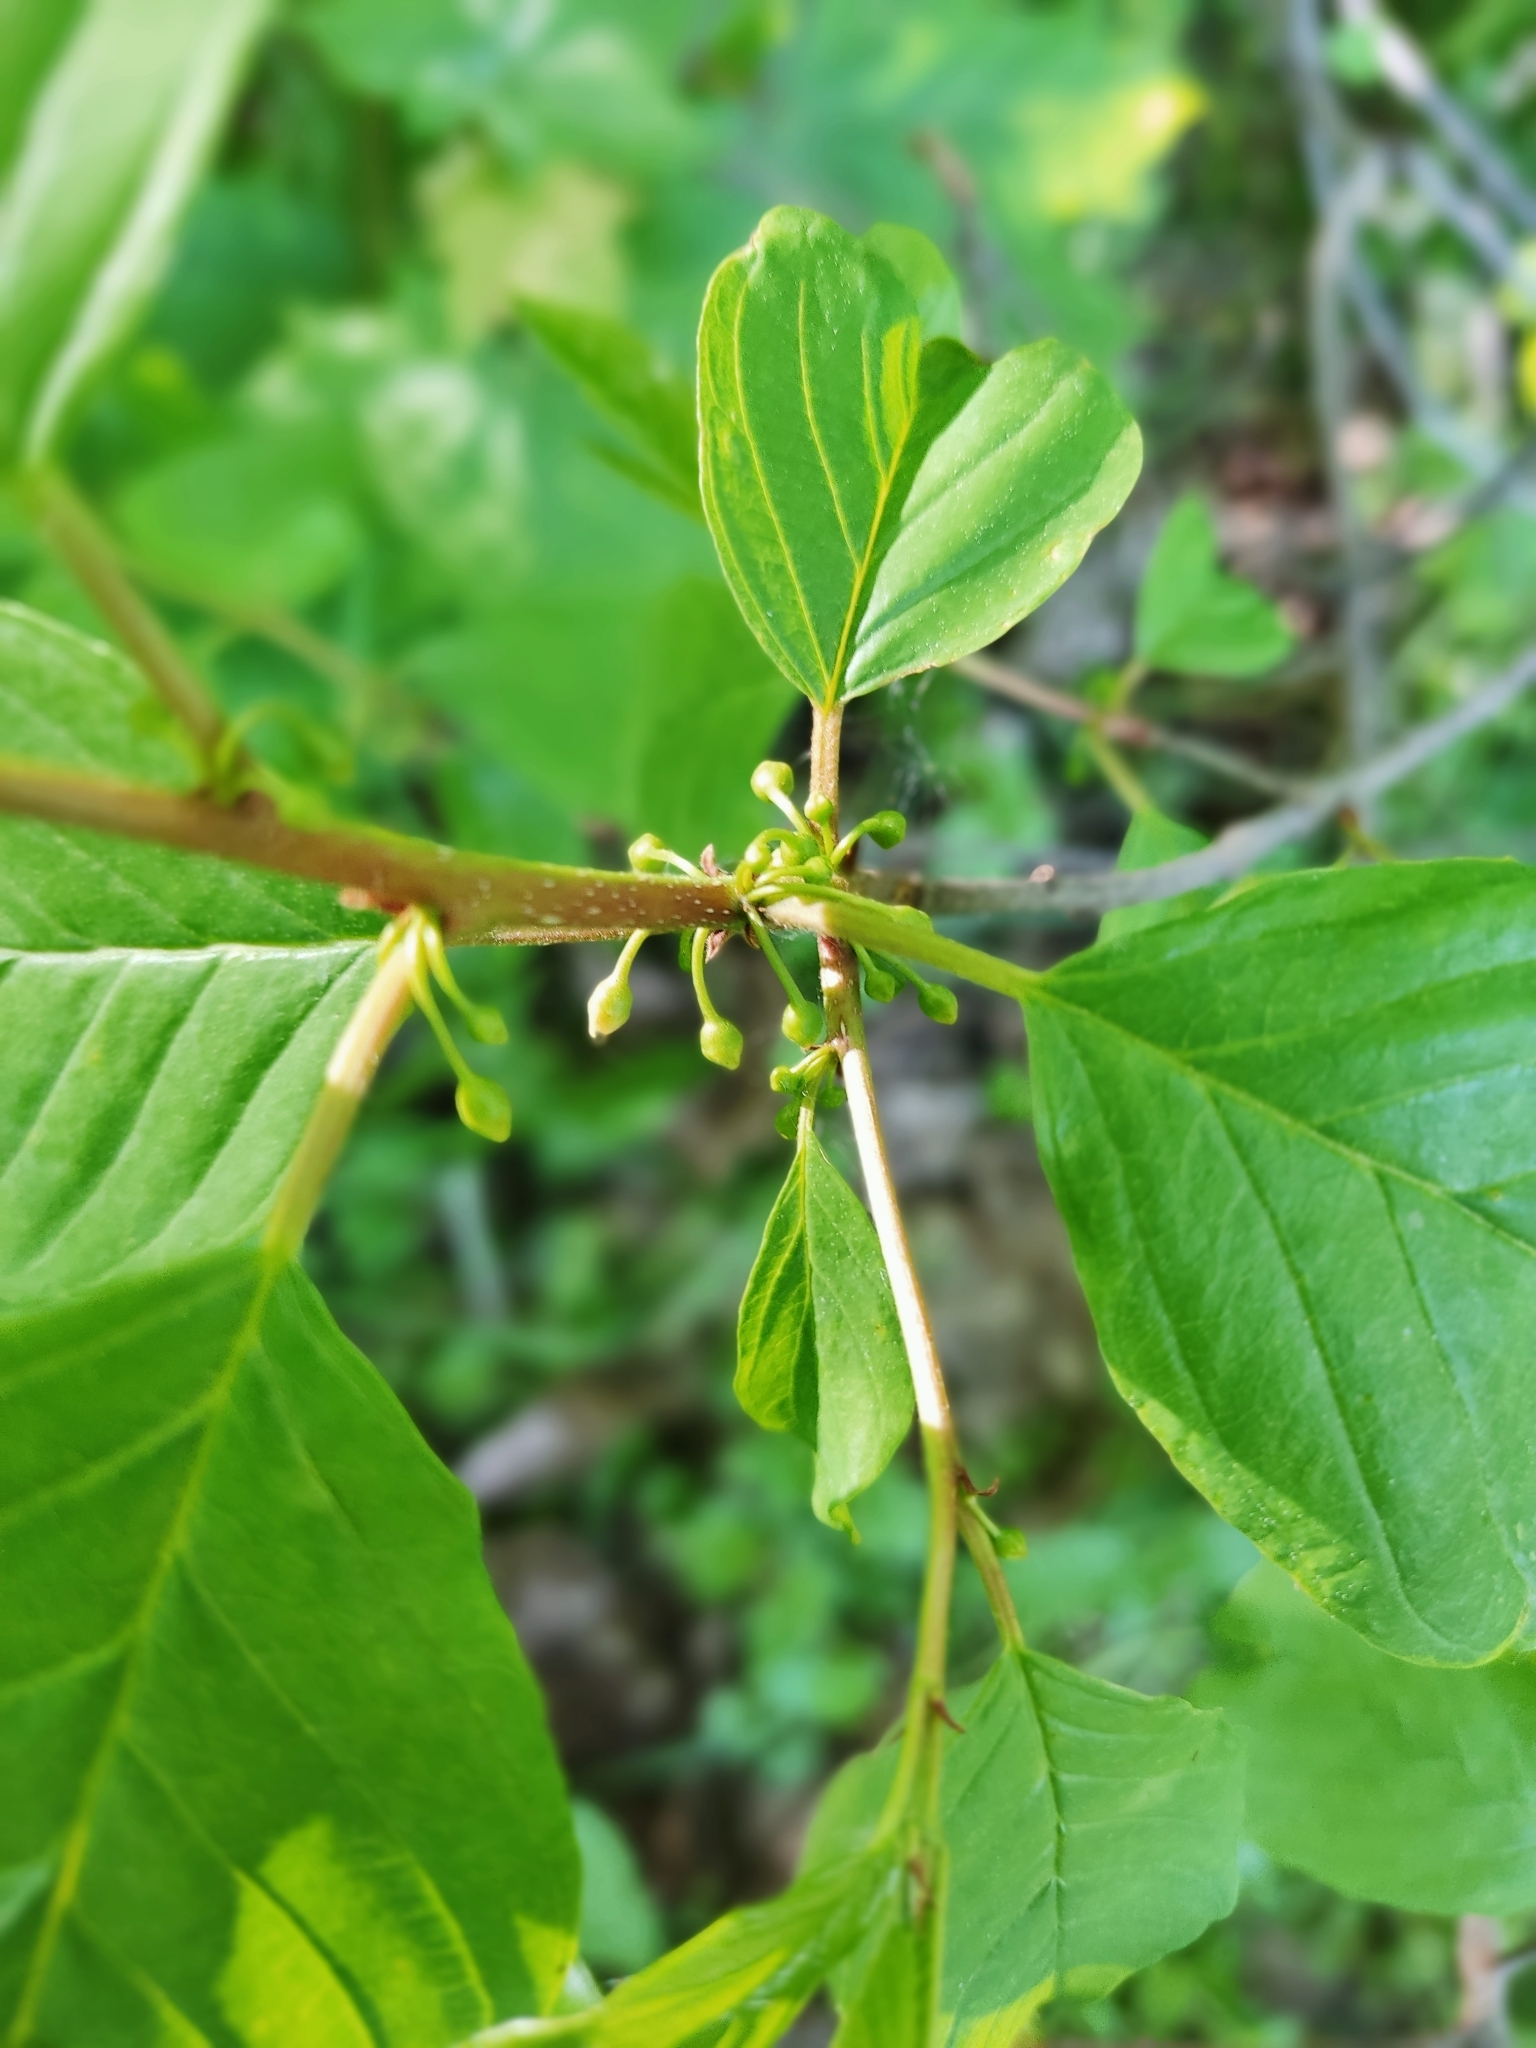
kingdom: Plantae
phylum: Tracheophyta
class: Magnoliopsida
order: Rosales
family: Rhamnaceae
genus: Frangula
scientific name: Frangula alnus
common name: Alder buckthorn
